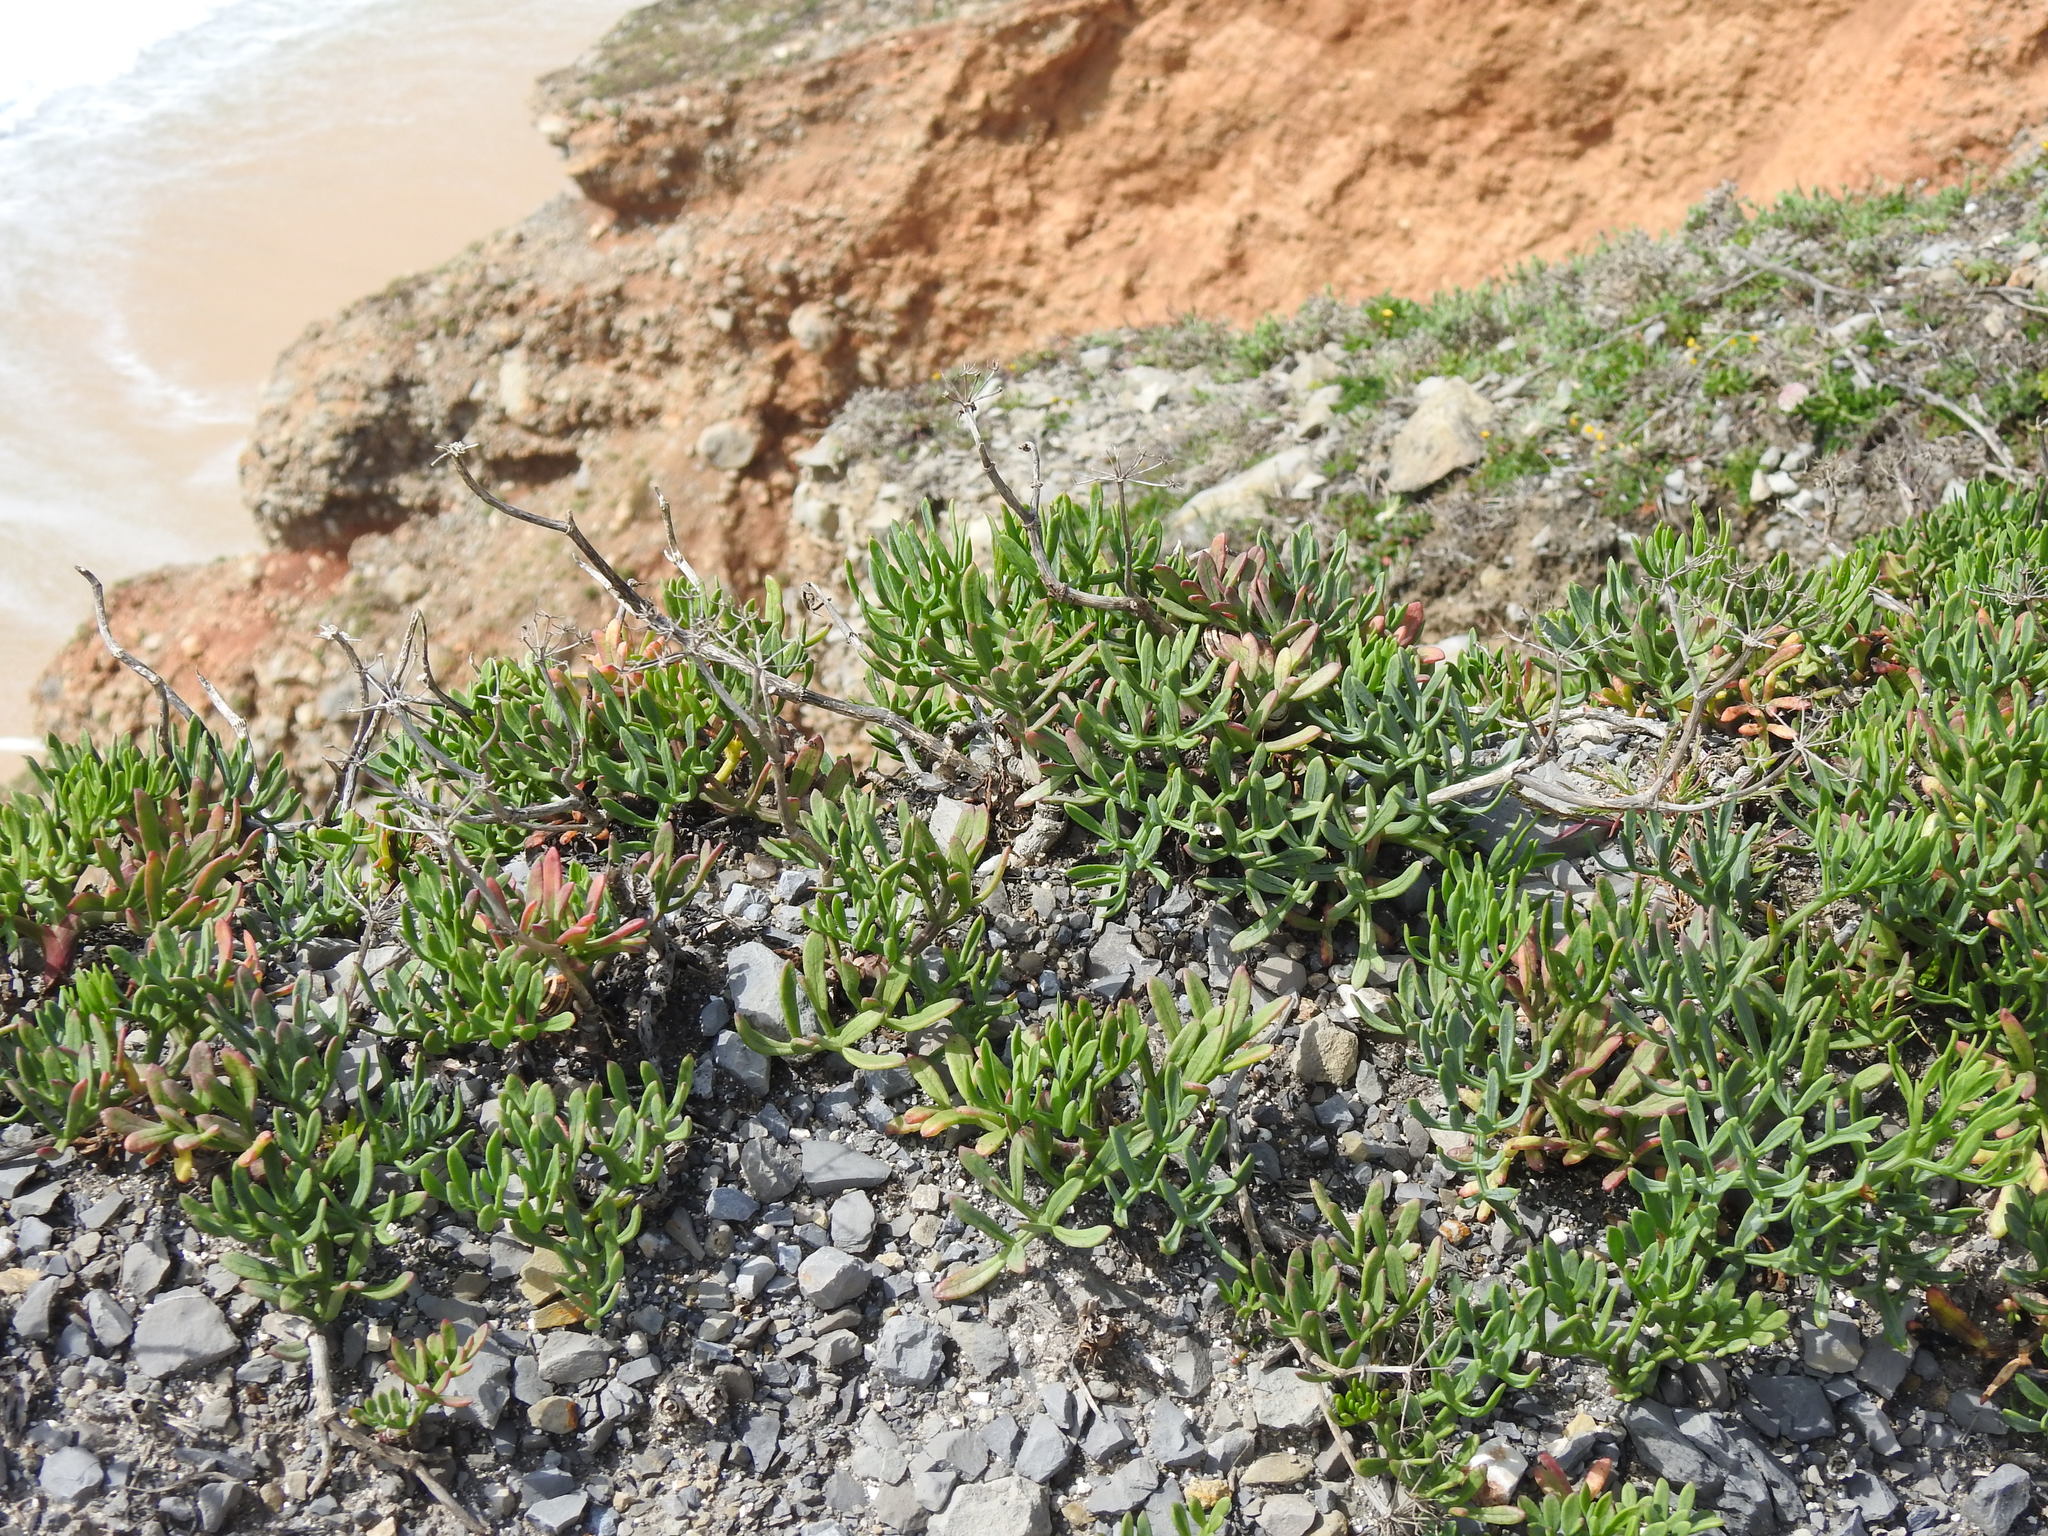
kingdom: Plantae
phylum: Tracheophyta
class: Magnoliopsida
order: Apiales
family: Apiaceae
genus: Crithmum
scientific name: Crithmum maritimum
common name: Rock samphire
